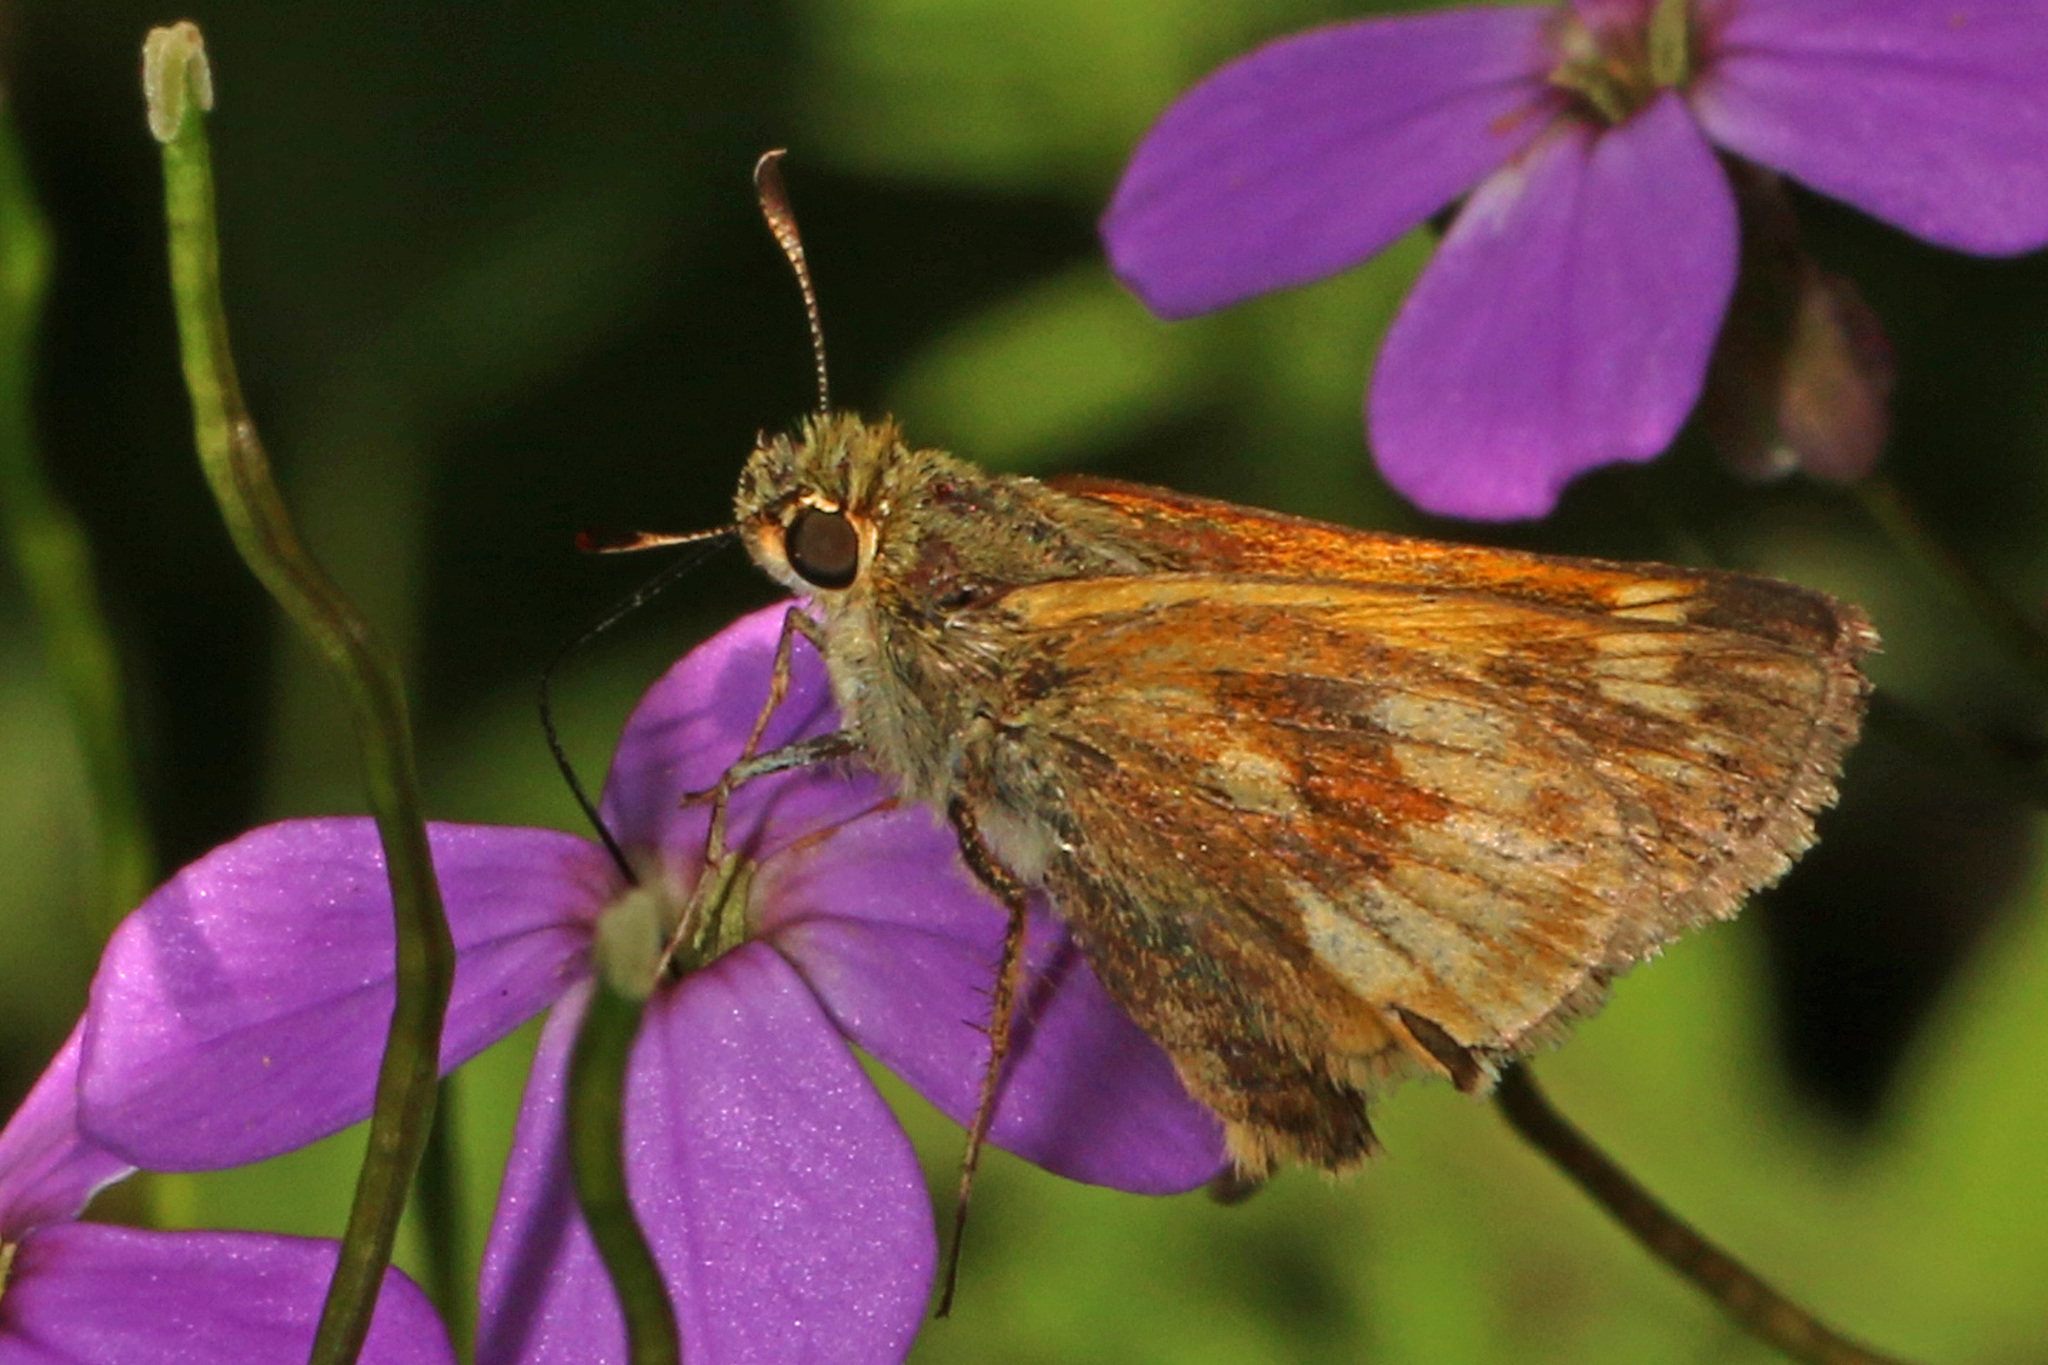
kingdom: Animalia
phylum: Arthropoda
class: Insecta
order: Lepidoptera
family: Hesperiidae
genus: Polites
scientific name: Polites mystic
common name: Long dash
